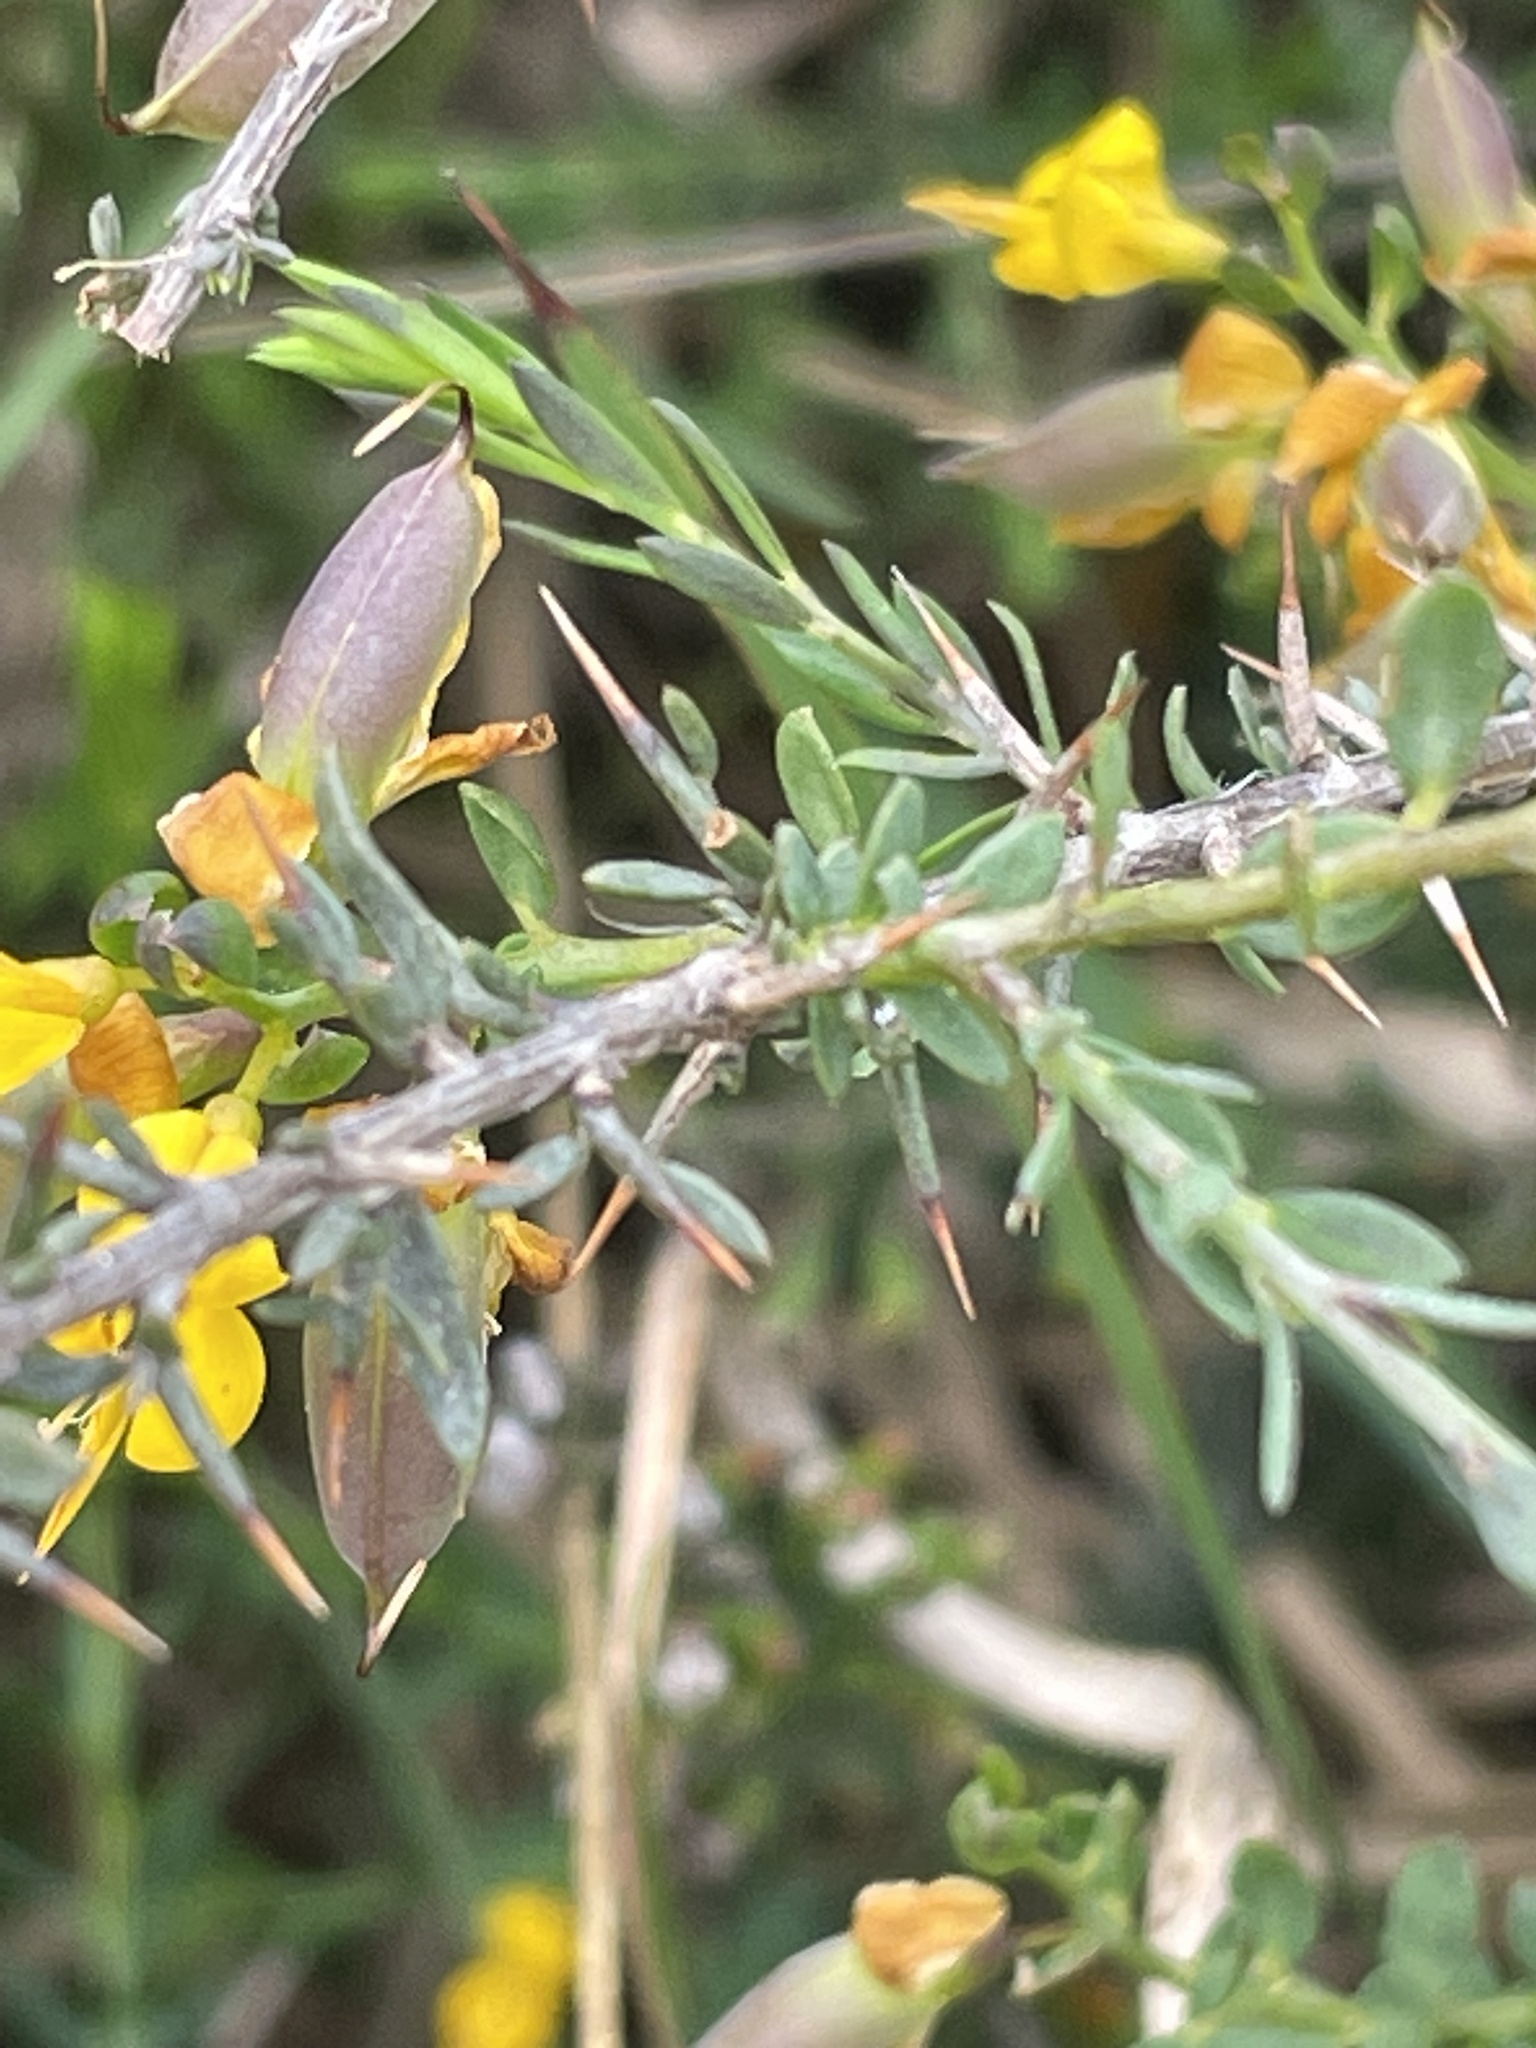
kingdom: Plantae
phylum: Tracheophyta
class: Magnoliopsida
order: Fabales
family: Fabaceae
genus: Genista
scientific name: Genista anglica
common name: Petty whin
